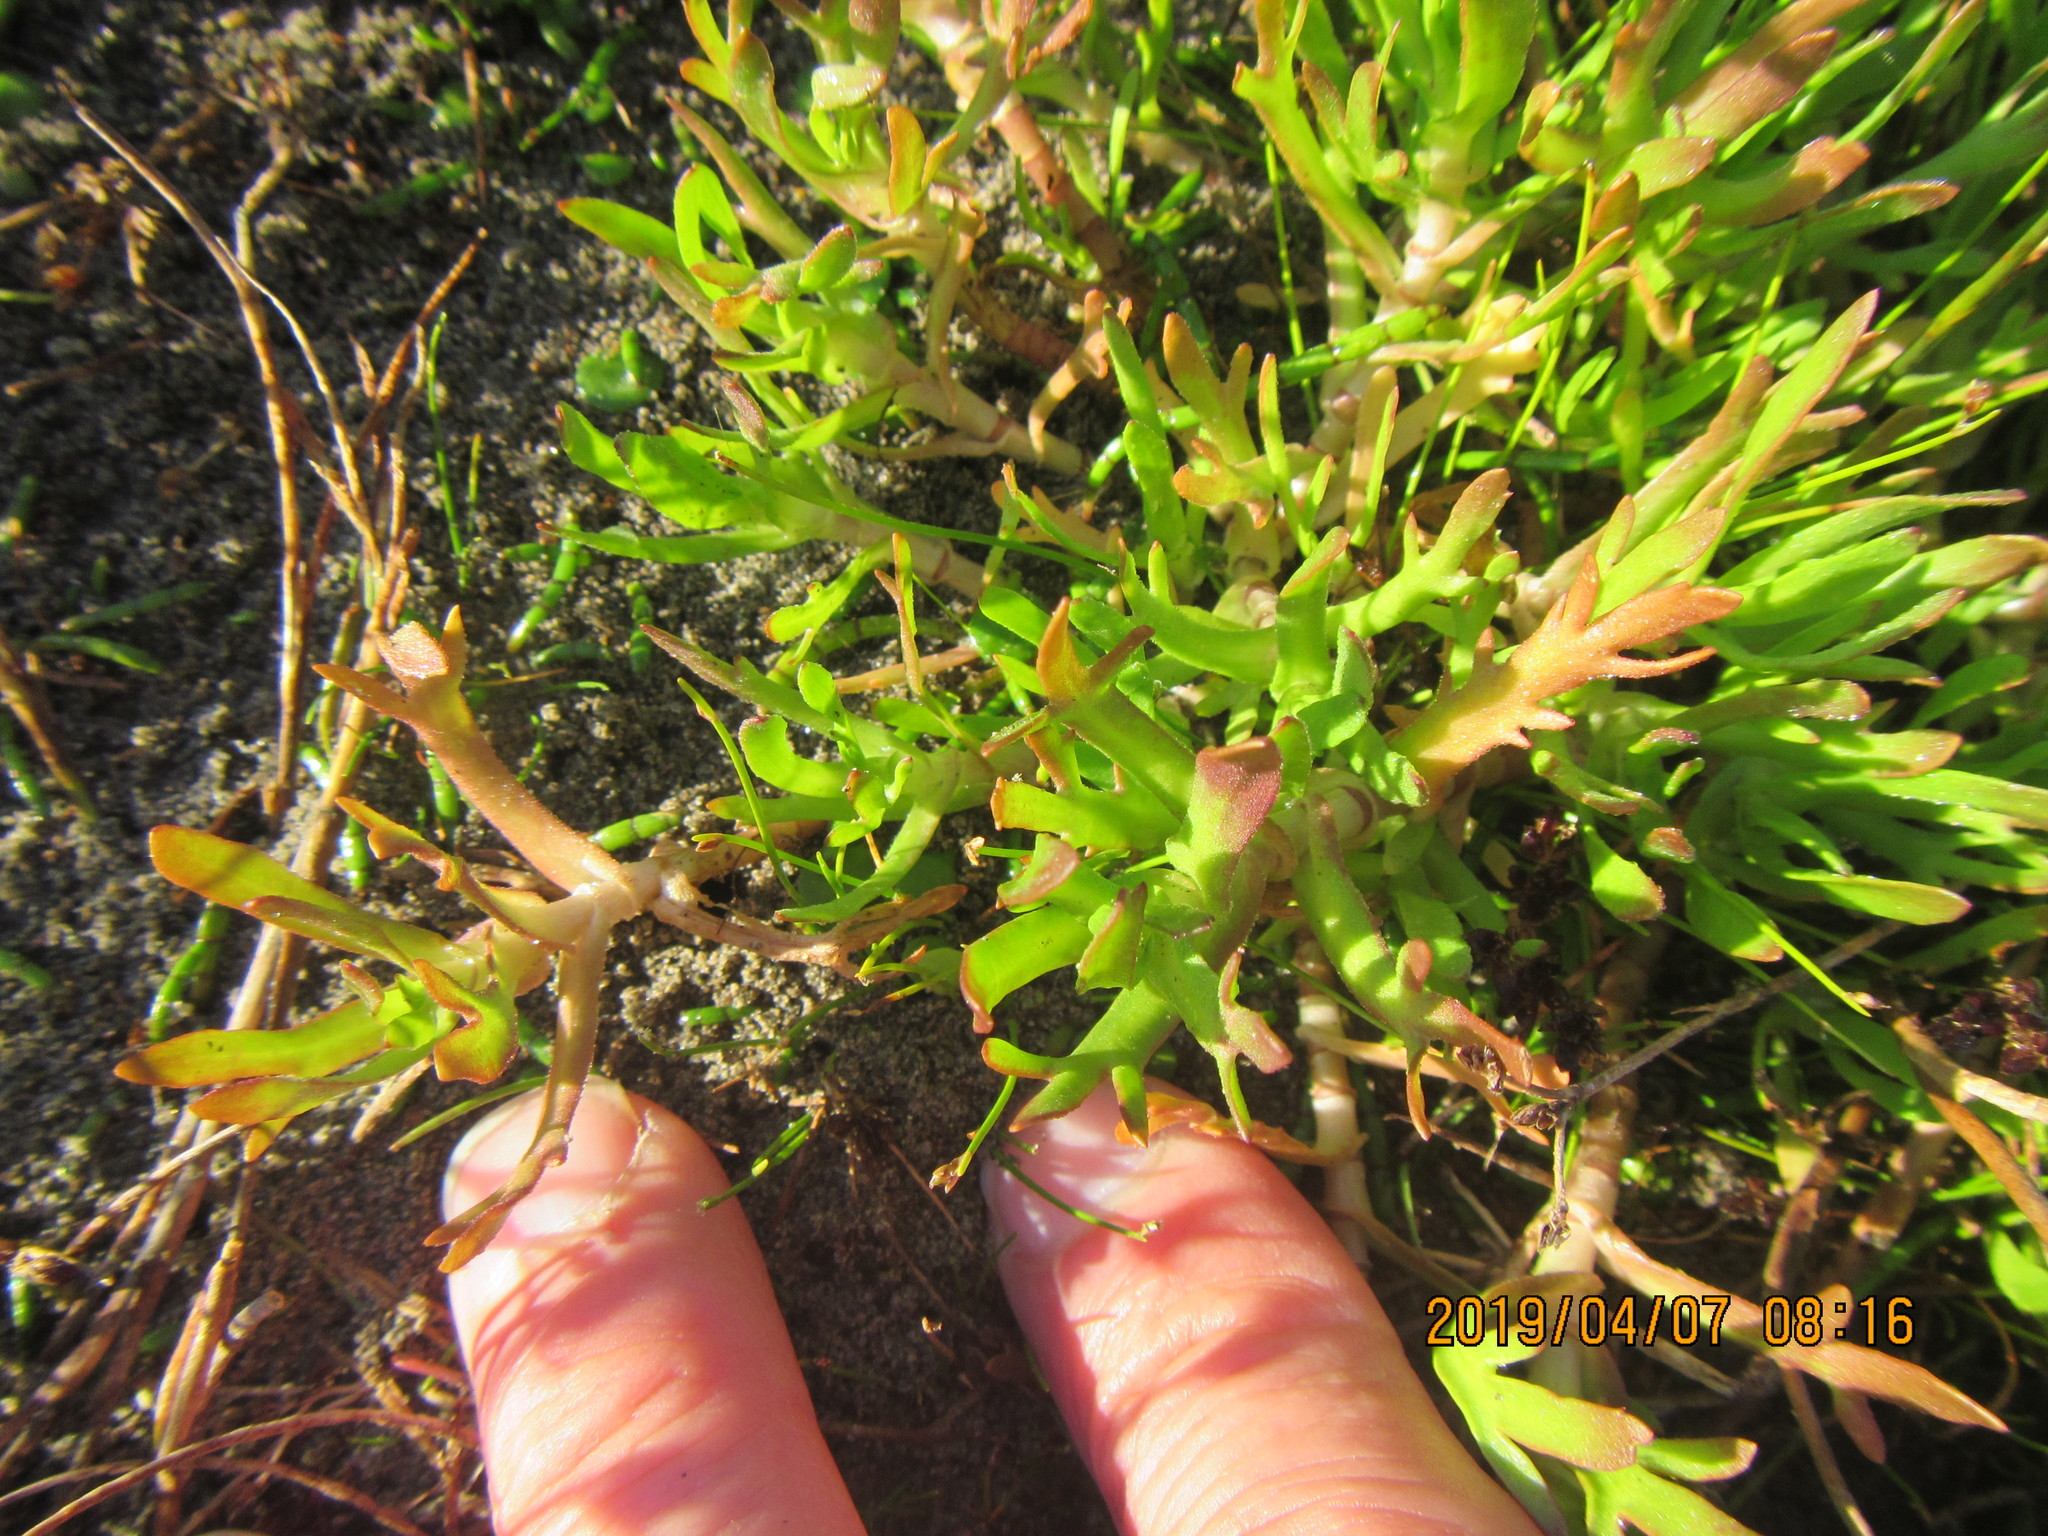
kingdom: Plantae
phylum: Tracheophyta
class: Magnoliopsida
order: Asterales
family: Asteraceae
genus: Cotula
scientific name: Cotula coronopifolia
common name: Buttonweed
